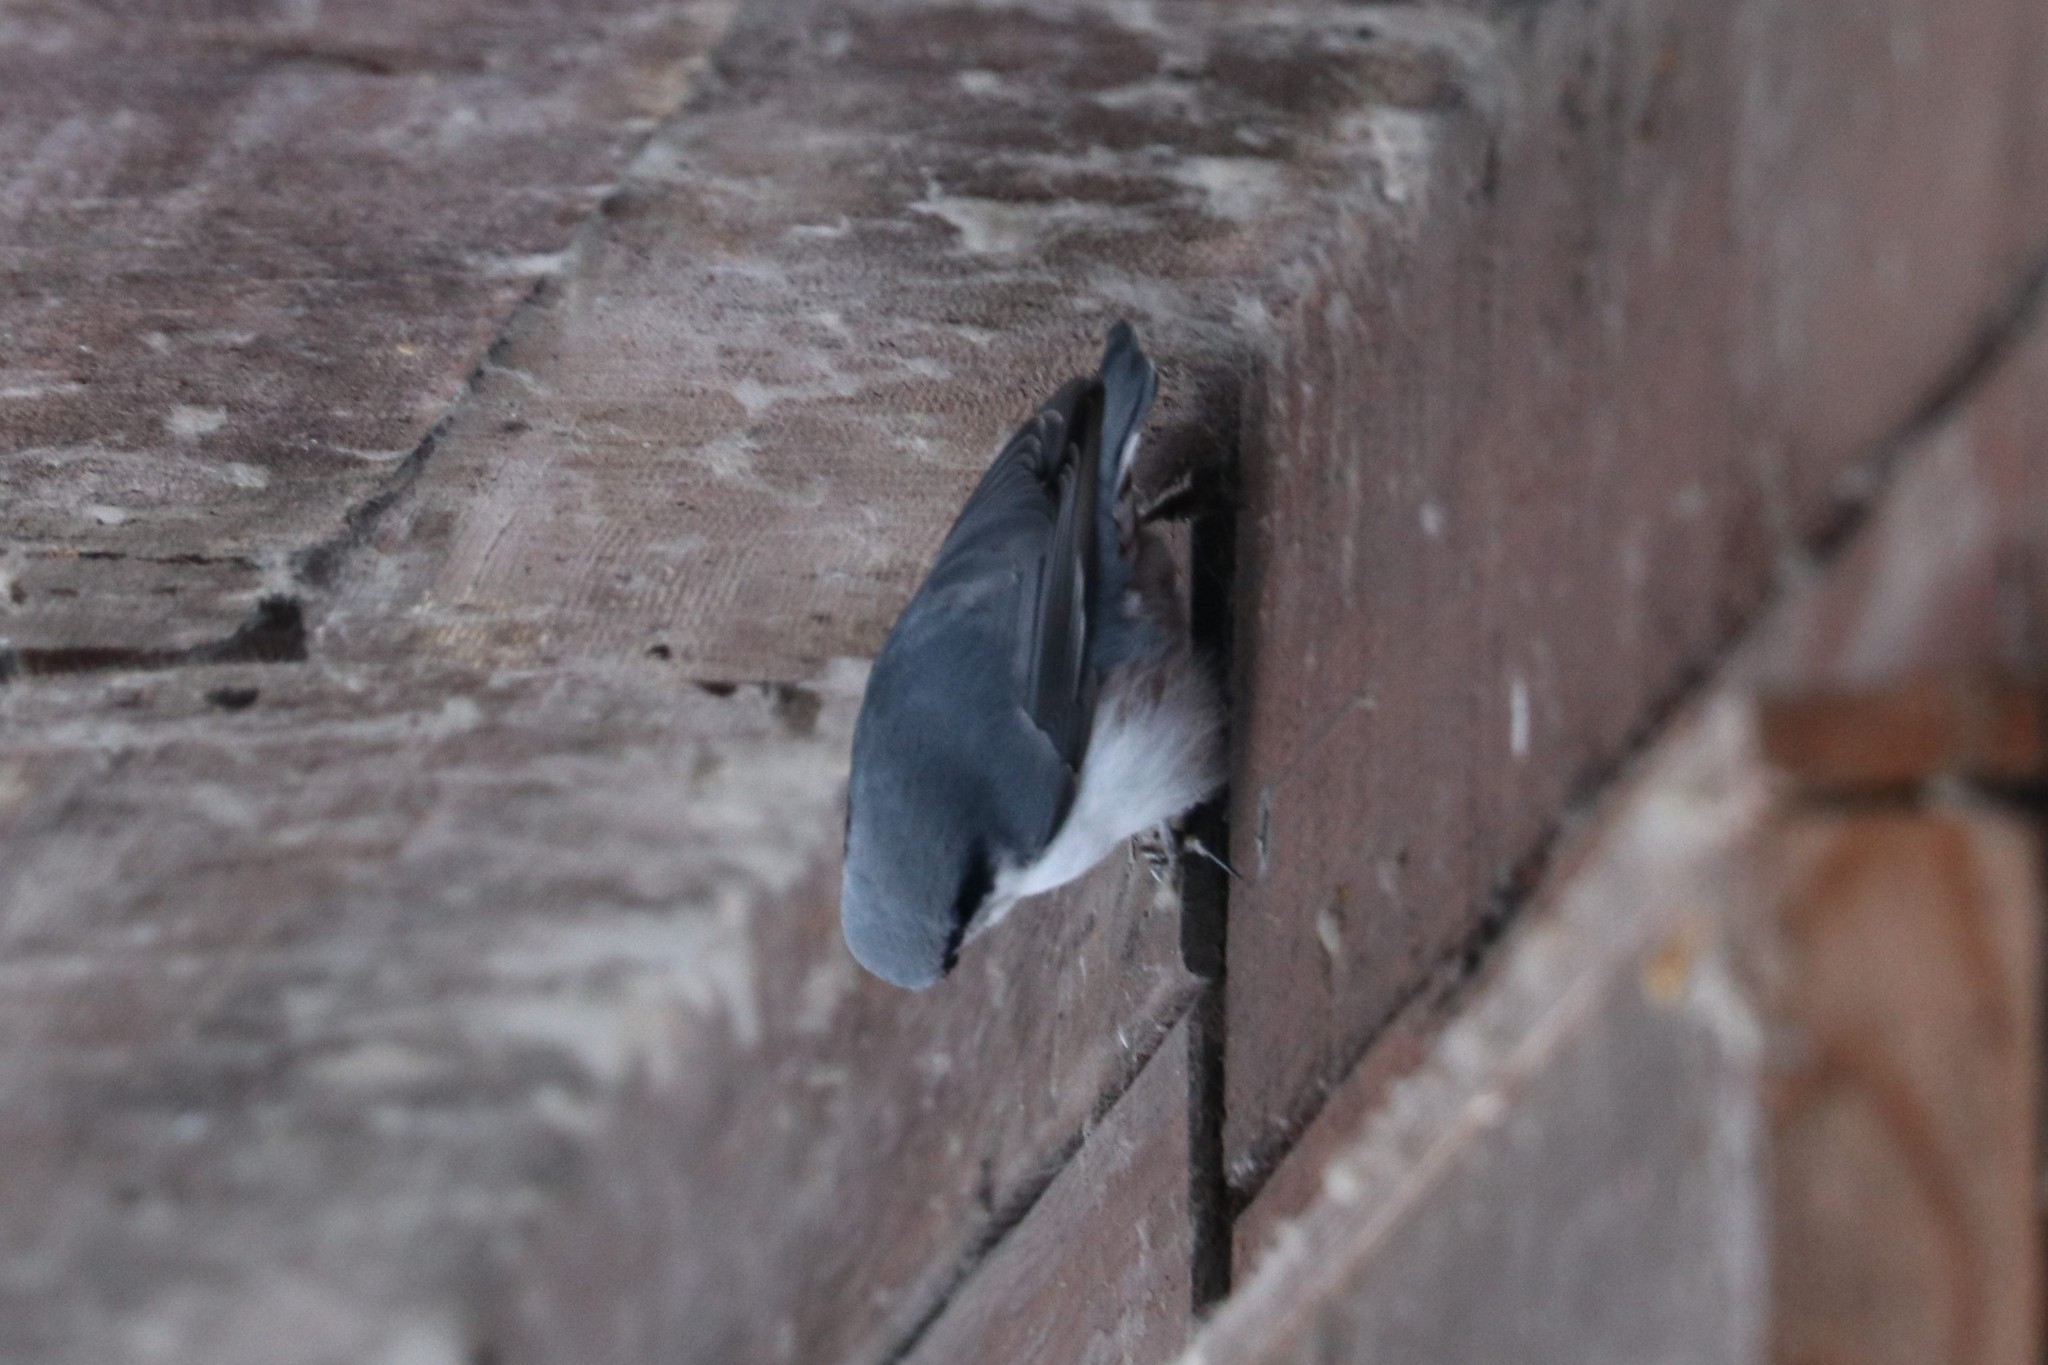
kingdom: Animalia
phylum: Chordata
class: Aves
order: Passeriformes
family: Sittidae
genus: Sitta
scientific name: Sitta europaea
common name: Eurasian nuthatch
